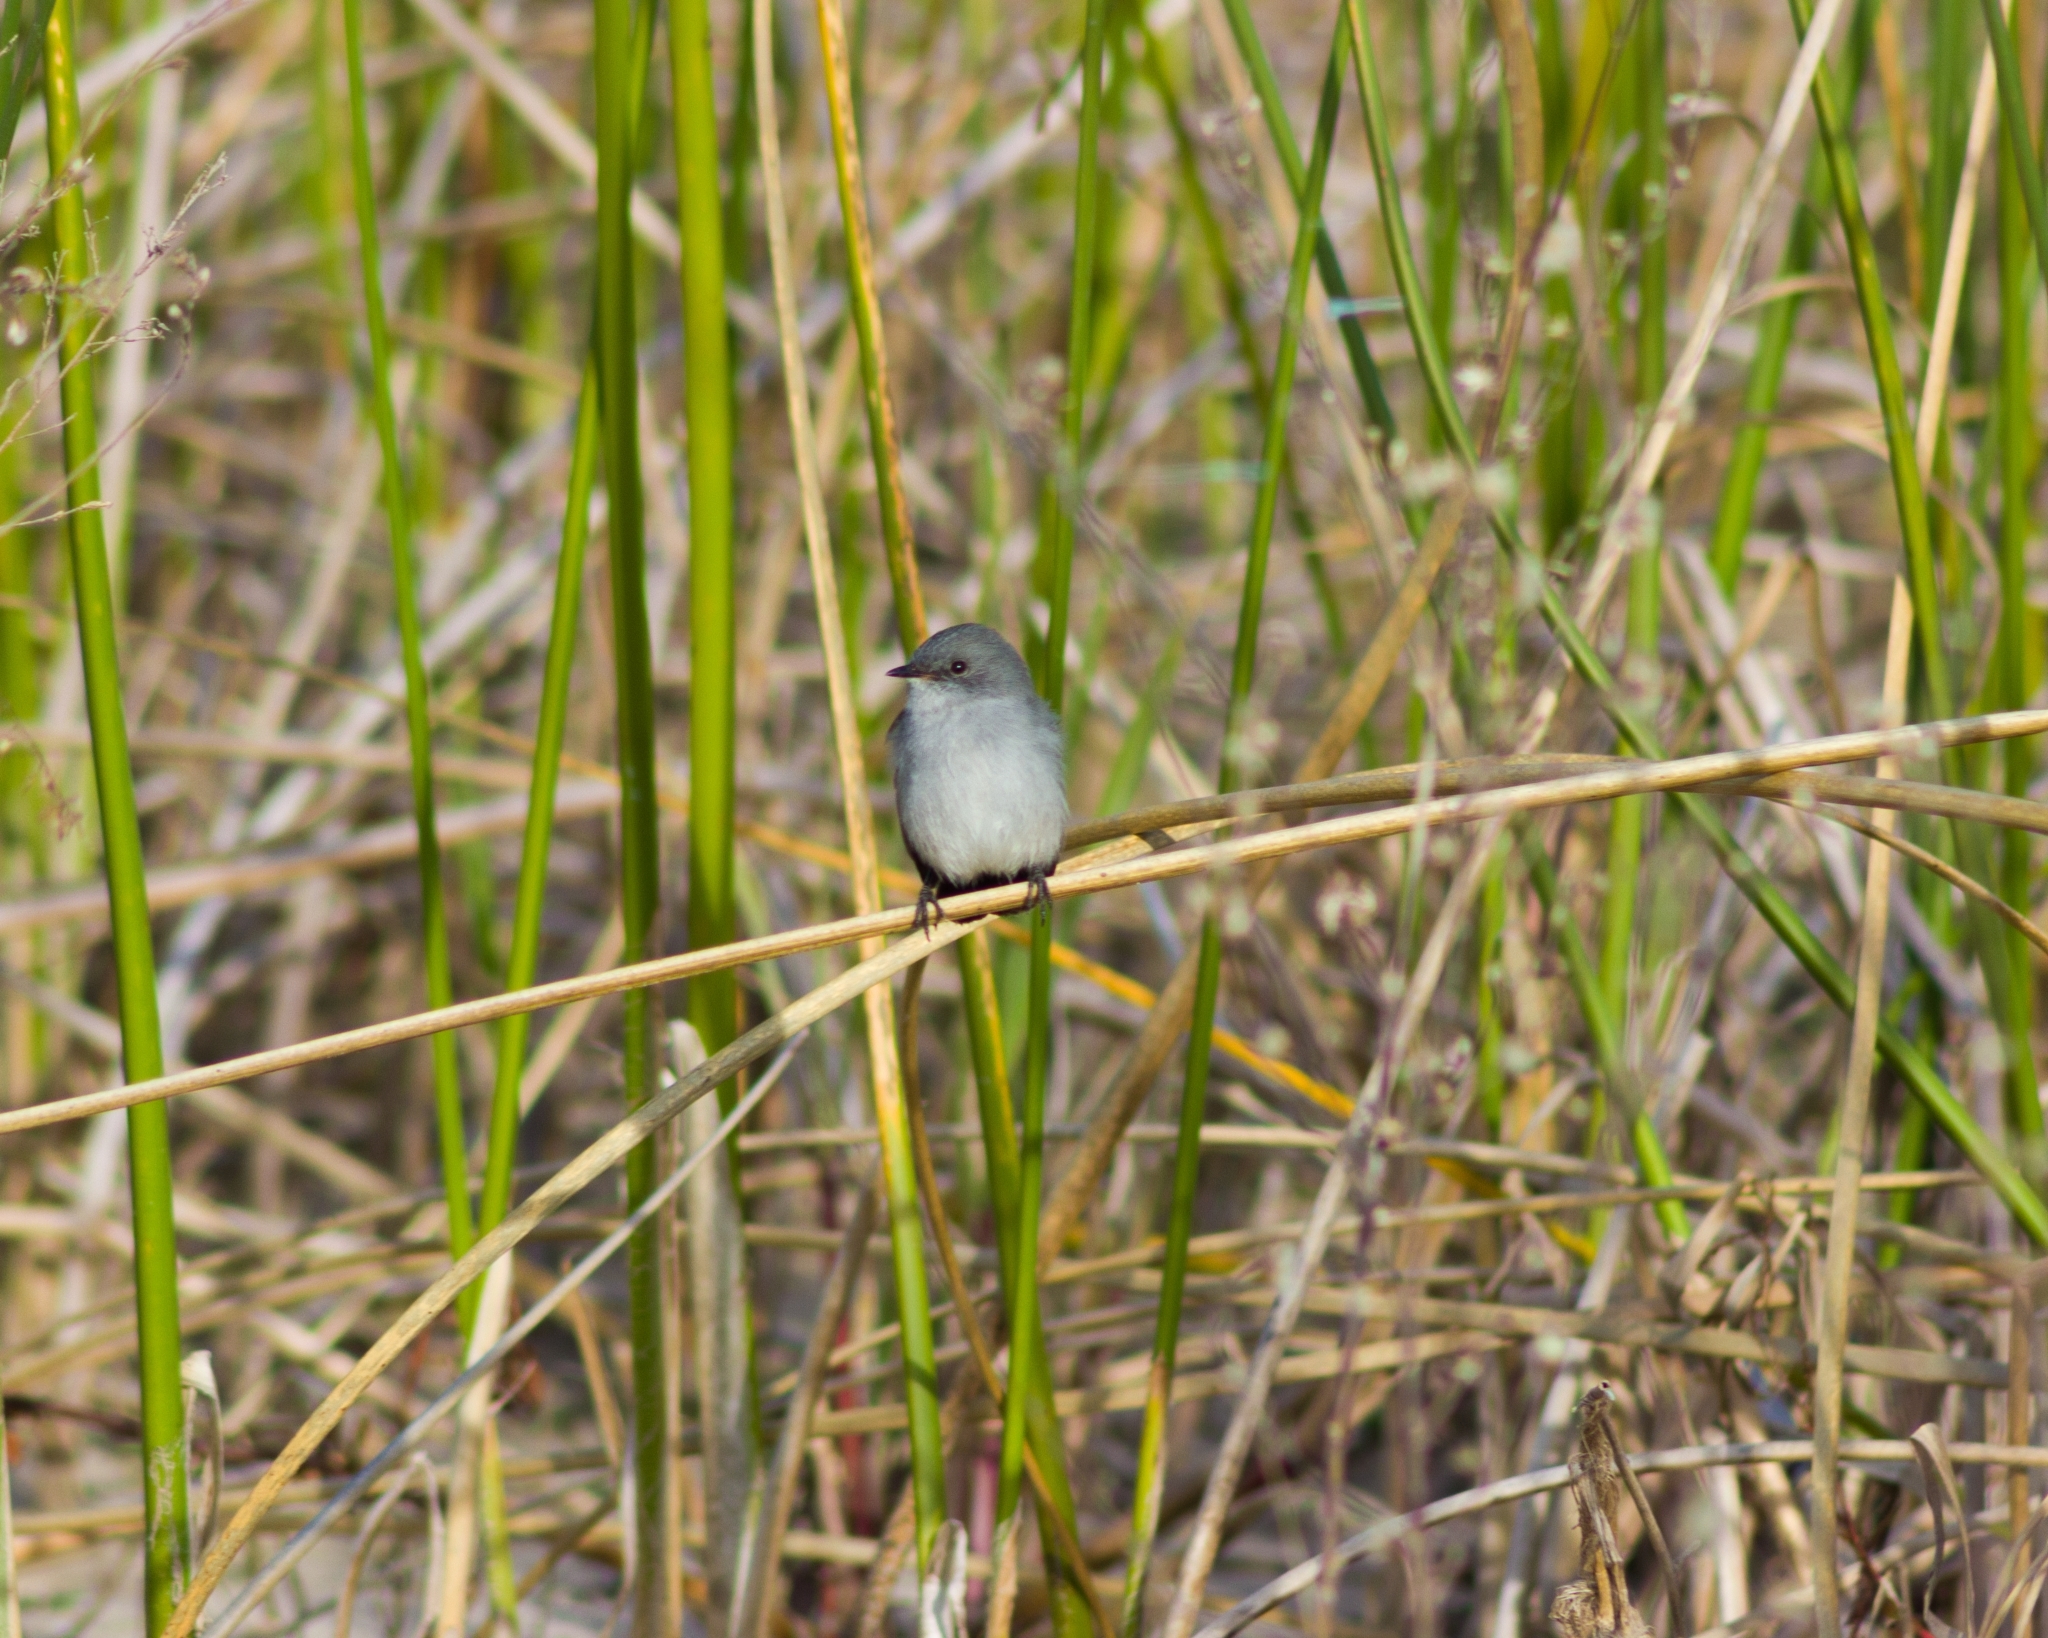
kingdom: Animalia
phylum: Chordata
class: Aves
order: Passeriformes
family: Tyrannidae
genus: Serpophaga
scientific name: Serpophaga nigricans
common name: Sooty tyrannulet
